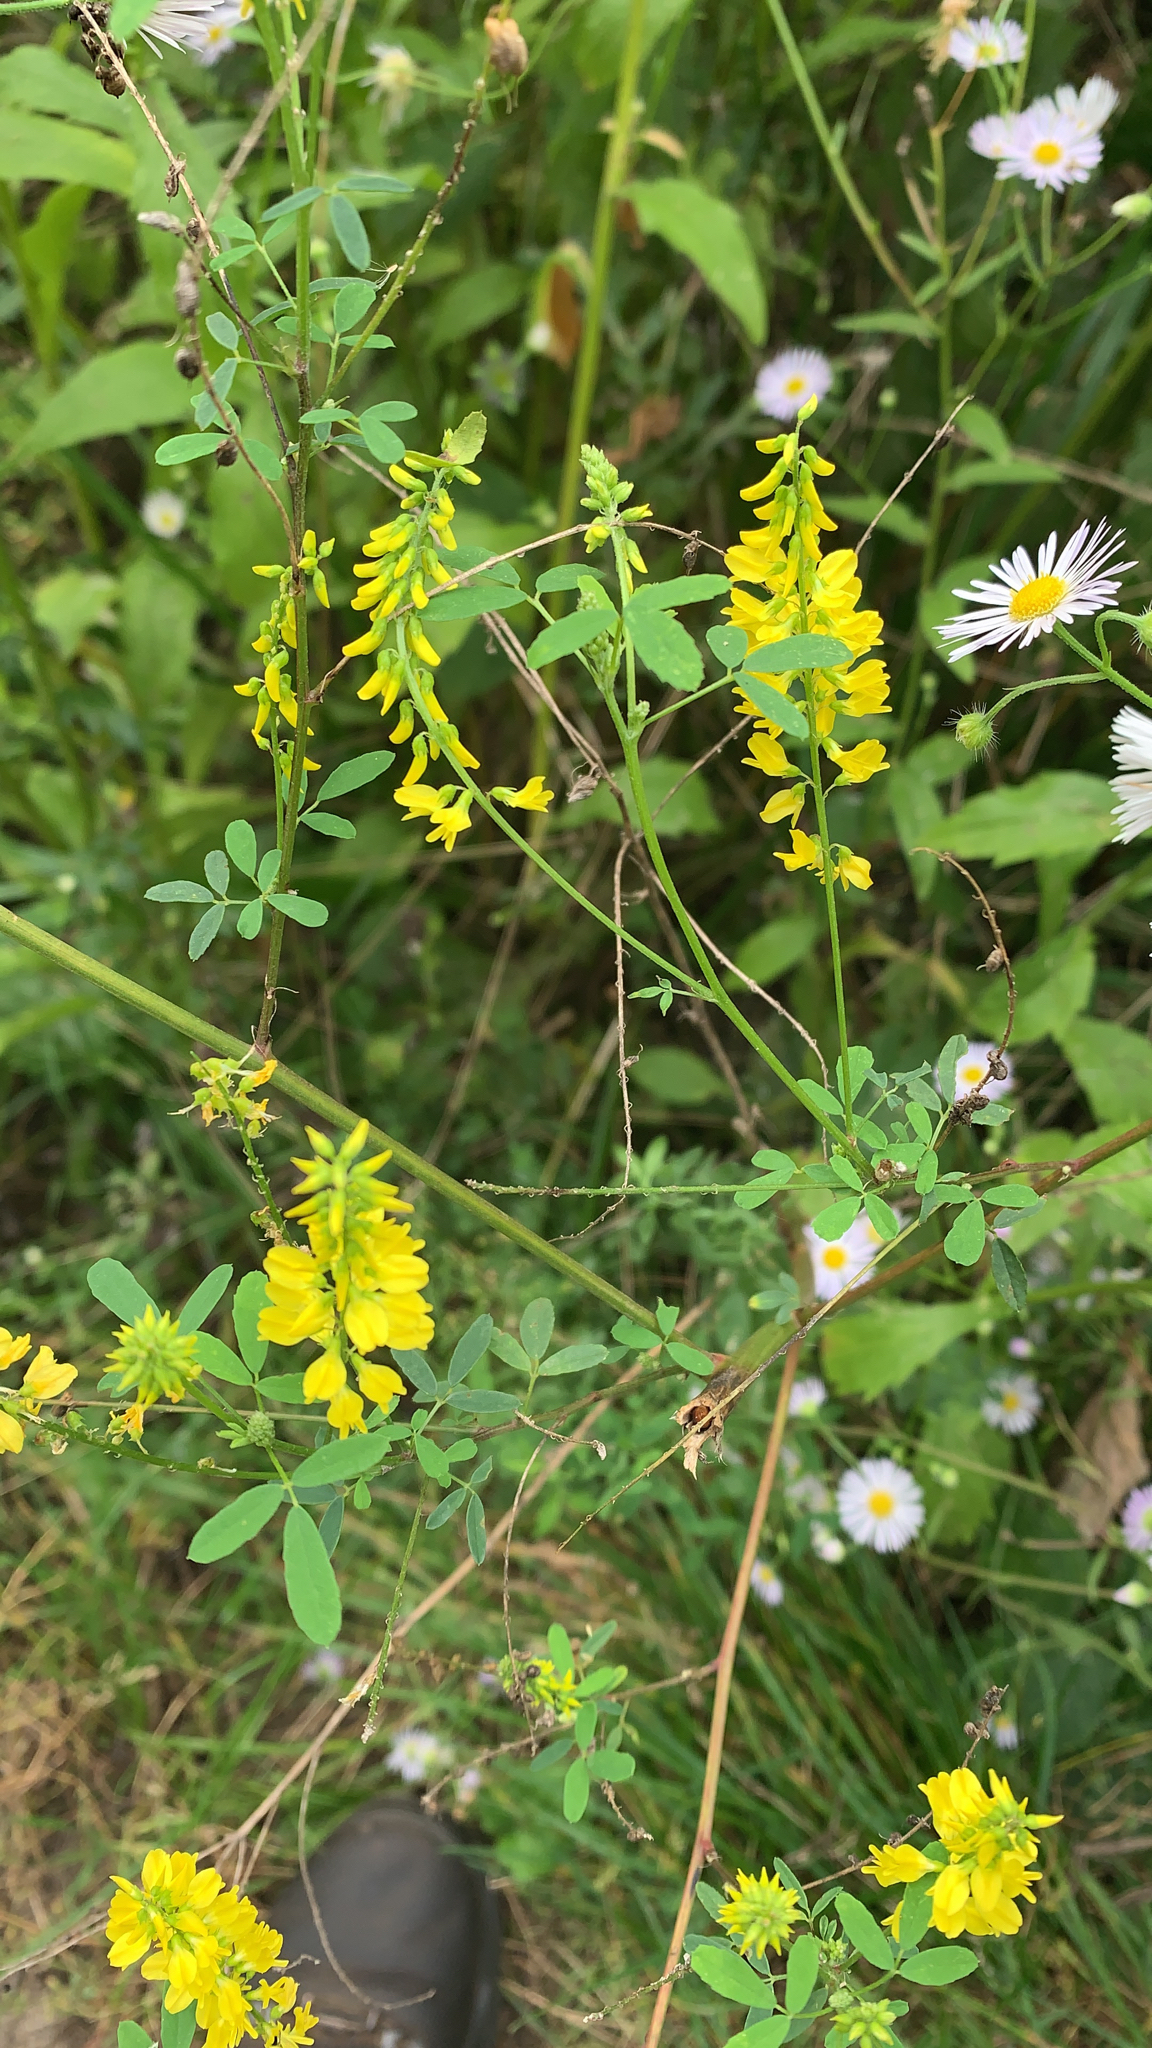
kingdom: Plantae
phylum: Tracheophyta
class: Magnoliopsida
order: Fabales
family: Fabaceae
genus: Melilotus
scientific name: Melilotus officinalis
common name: Sweetclover
